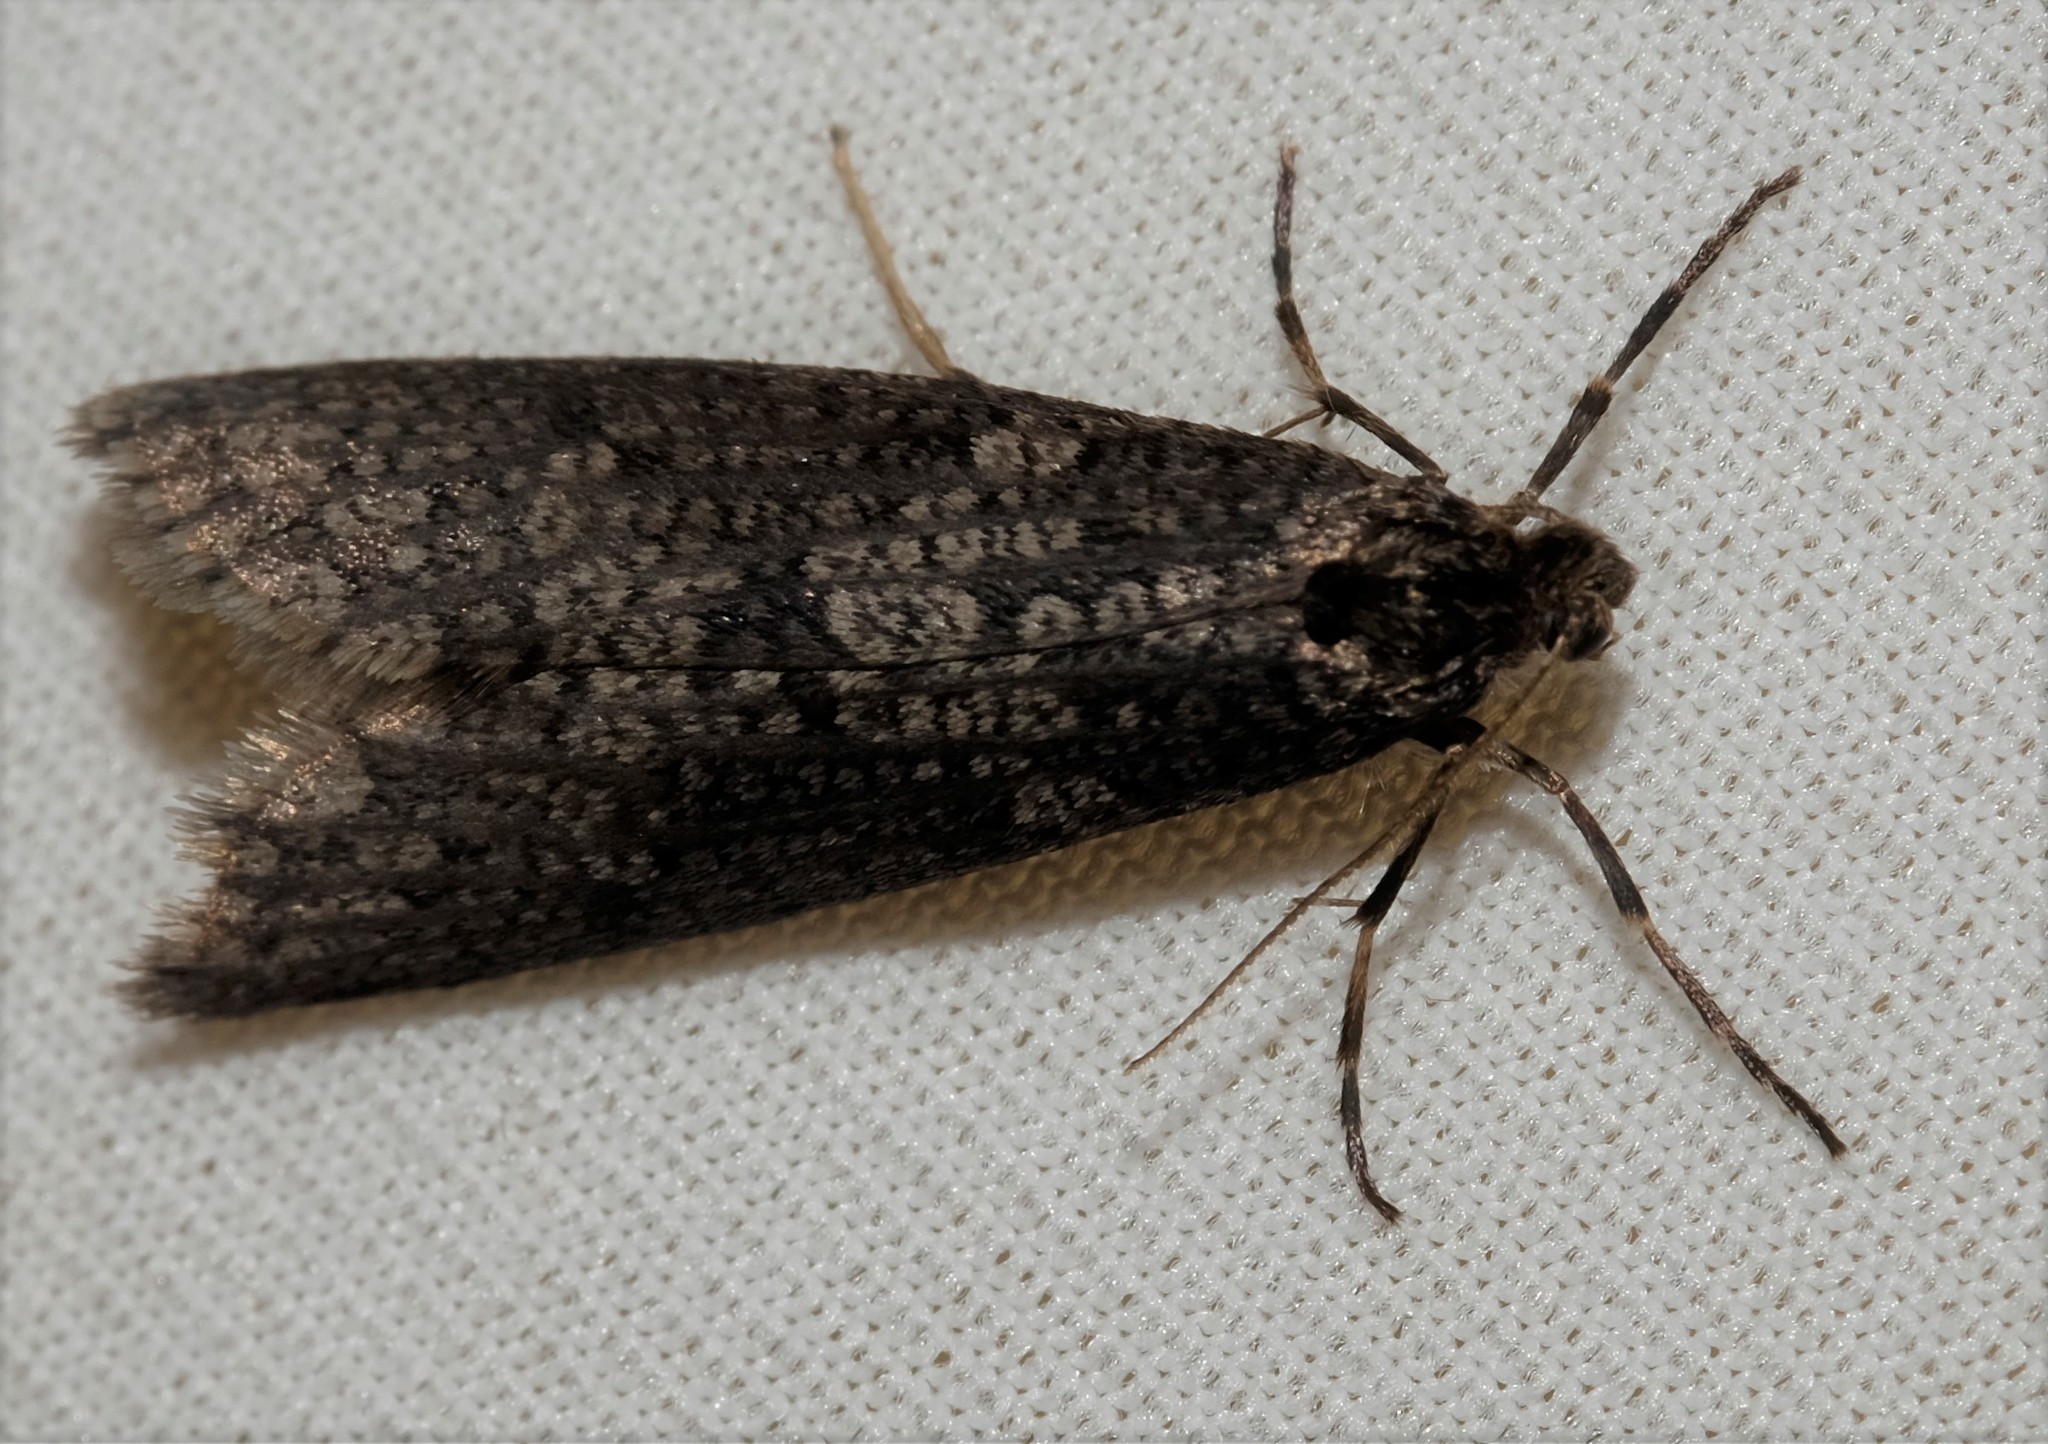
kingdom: Animalia
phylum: Arthropoda
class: Insecta
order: Lepidoptera
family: Psychidae
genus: Lepidoscia
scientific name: Lepidoscia annosella
